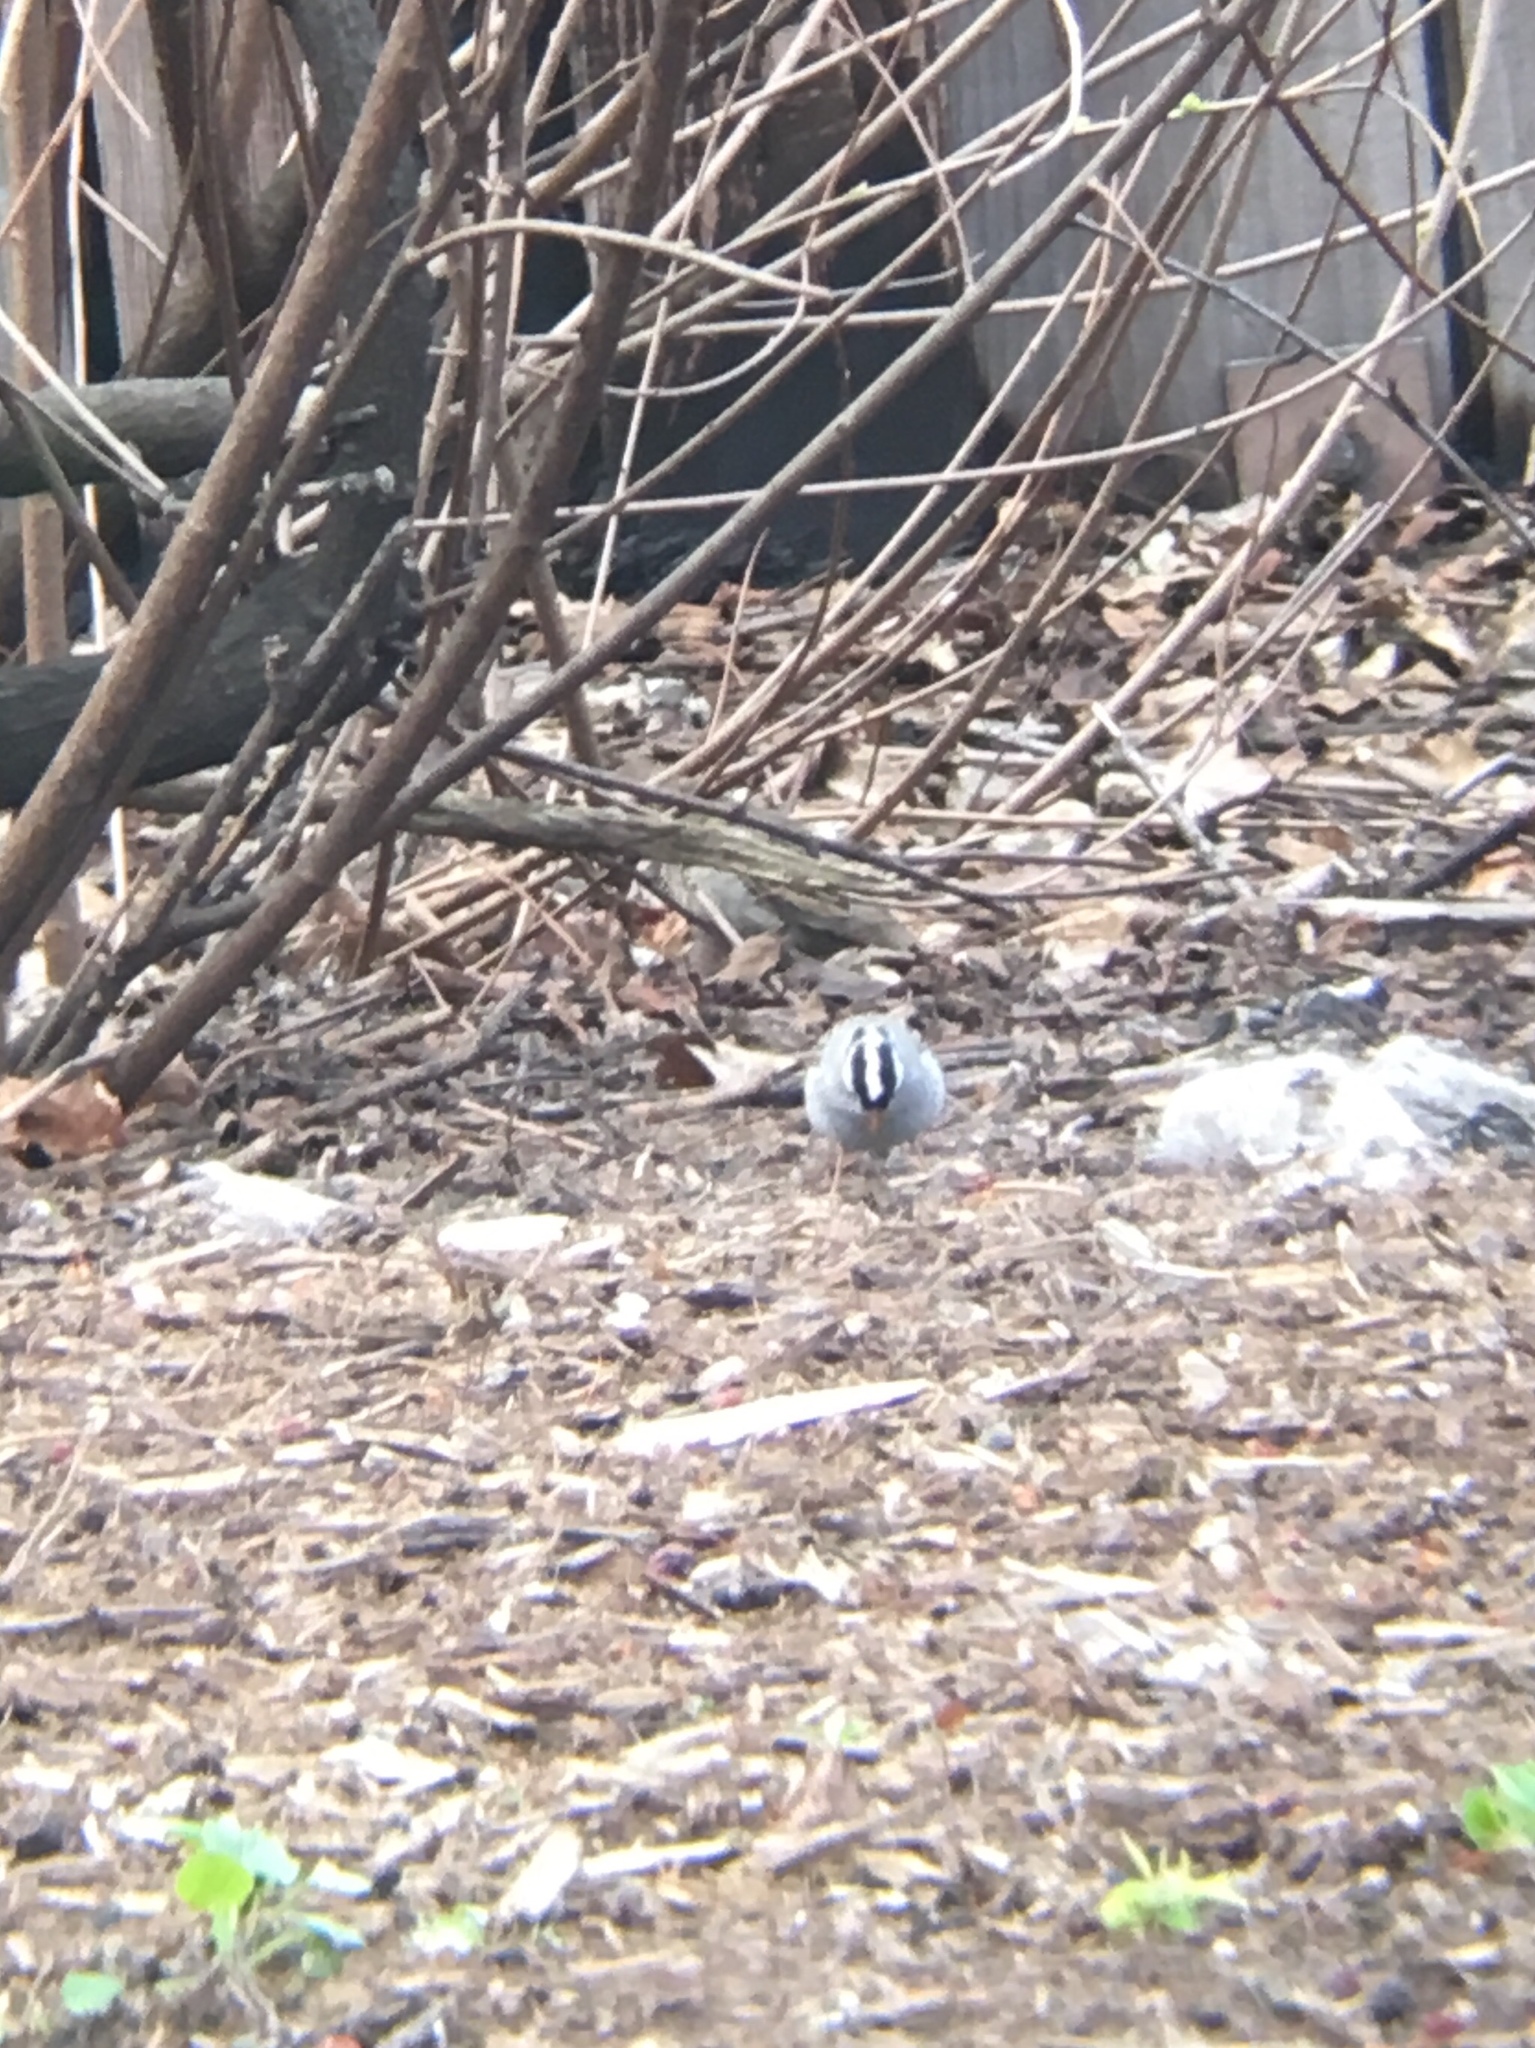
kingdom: Animalia
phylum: Chordata
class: Aves
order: Passeriformes
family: Passerellidae
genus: Zonotrichia
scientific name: Zonotrichia leucophrys
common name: White-crowned sparrow
